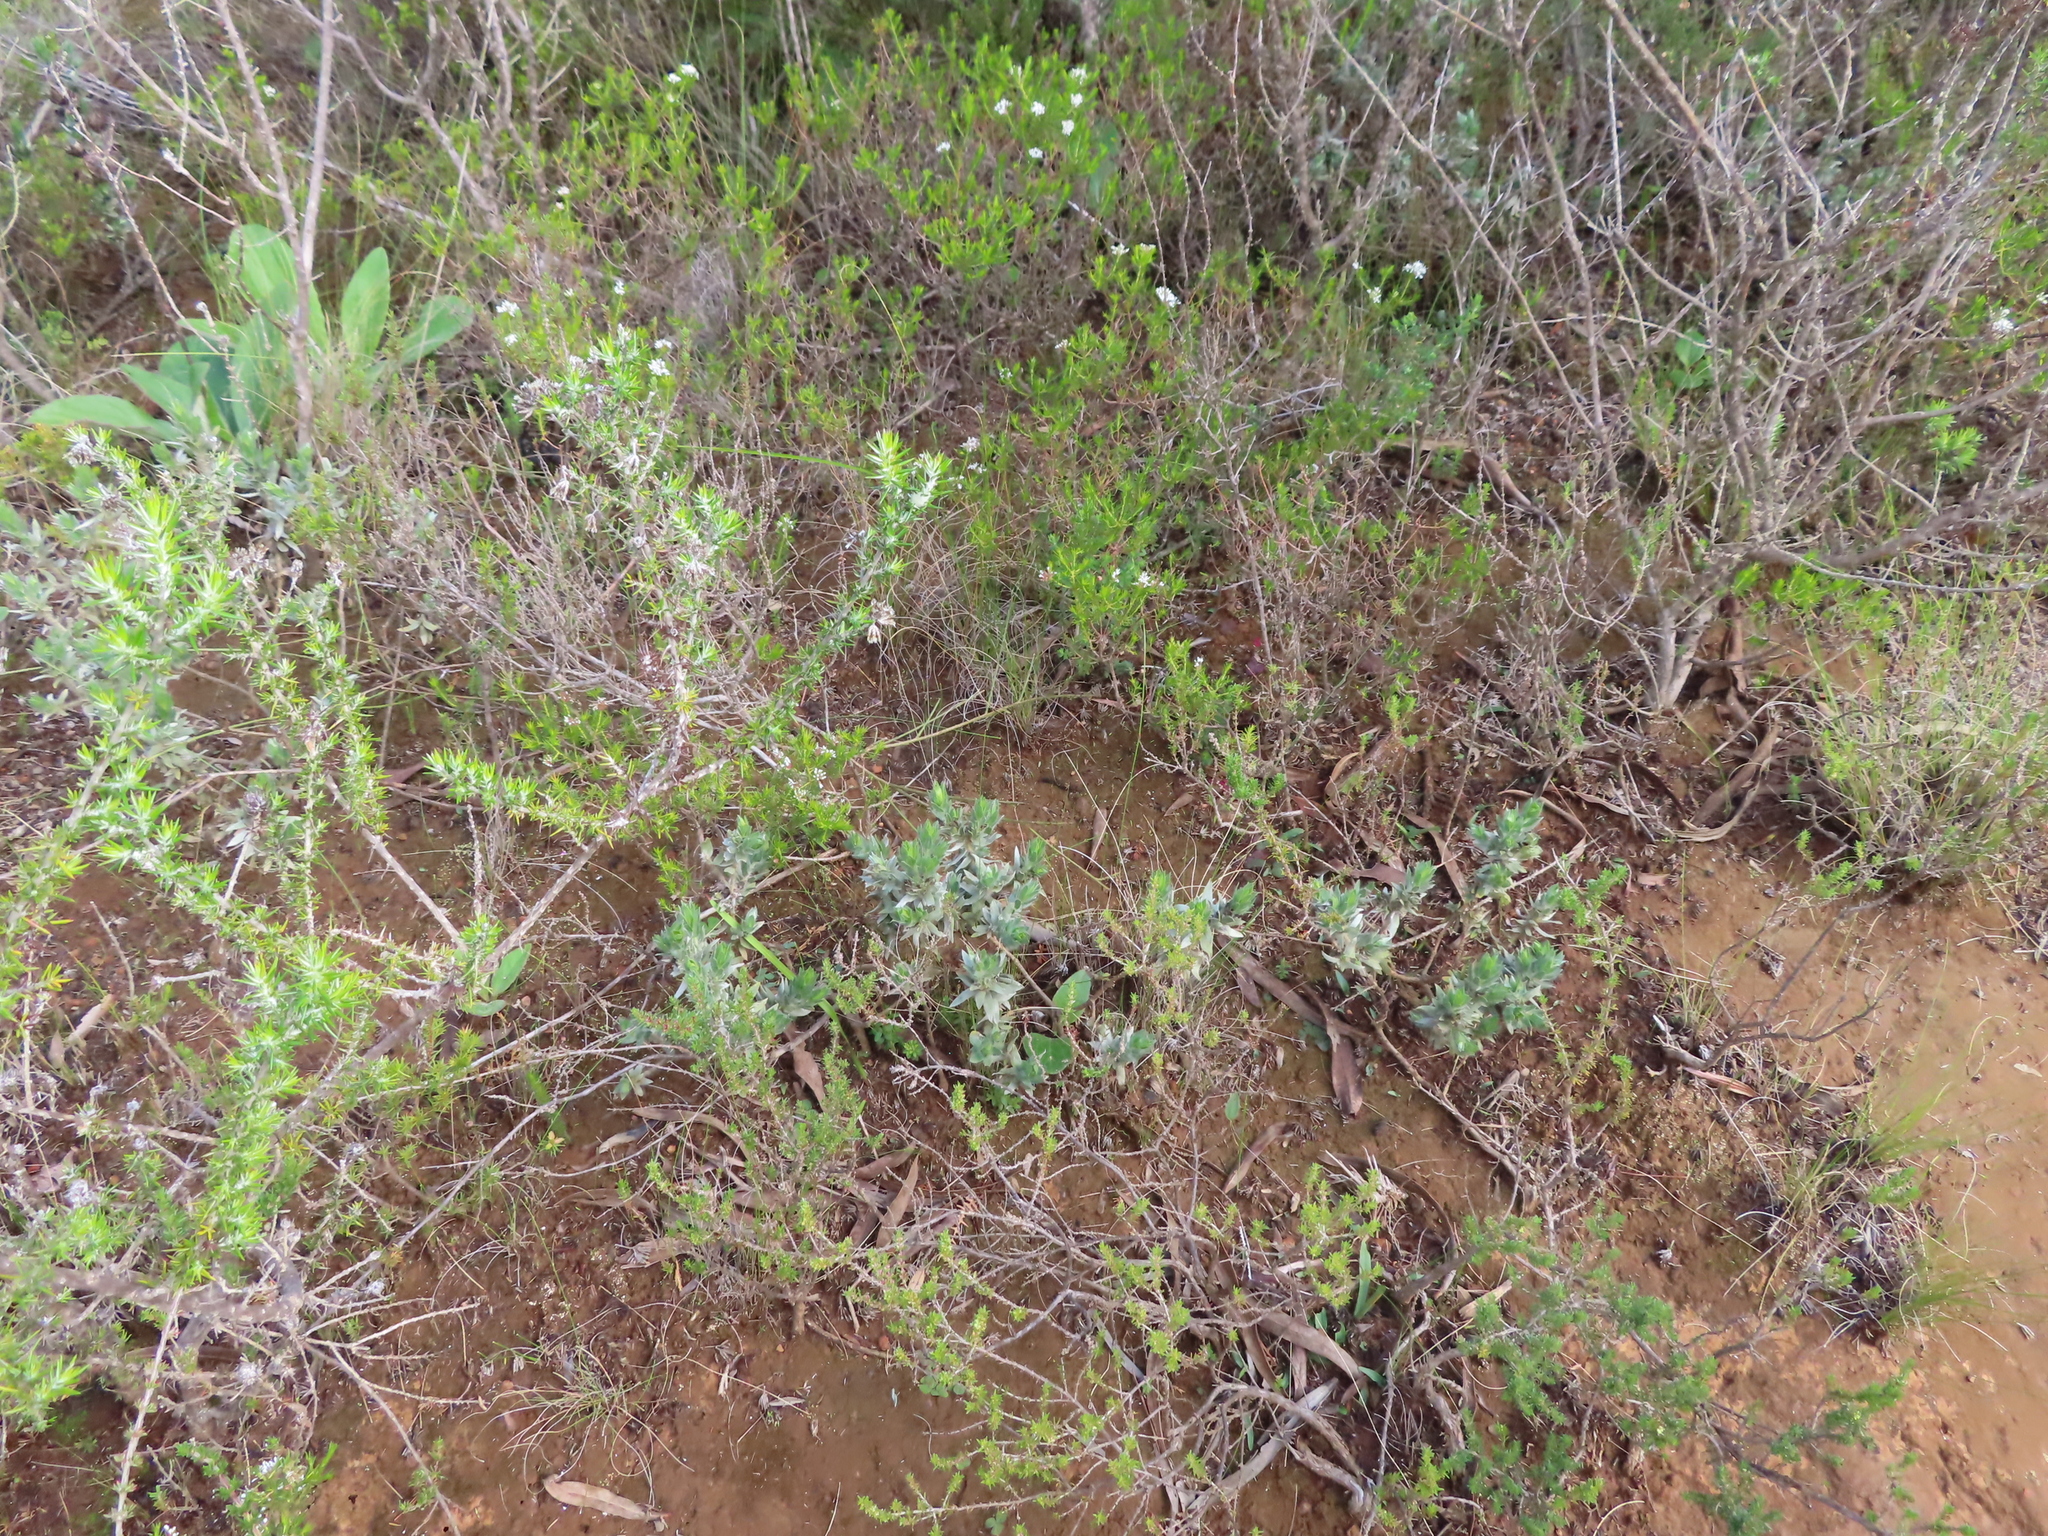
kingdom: Plantae
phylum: Tracheophyta
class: Magnoliopsida
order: Fabales
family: Fabaceae
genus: Xiphotheca
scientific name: Xiphotheca lanceolata
